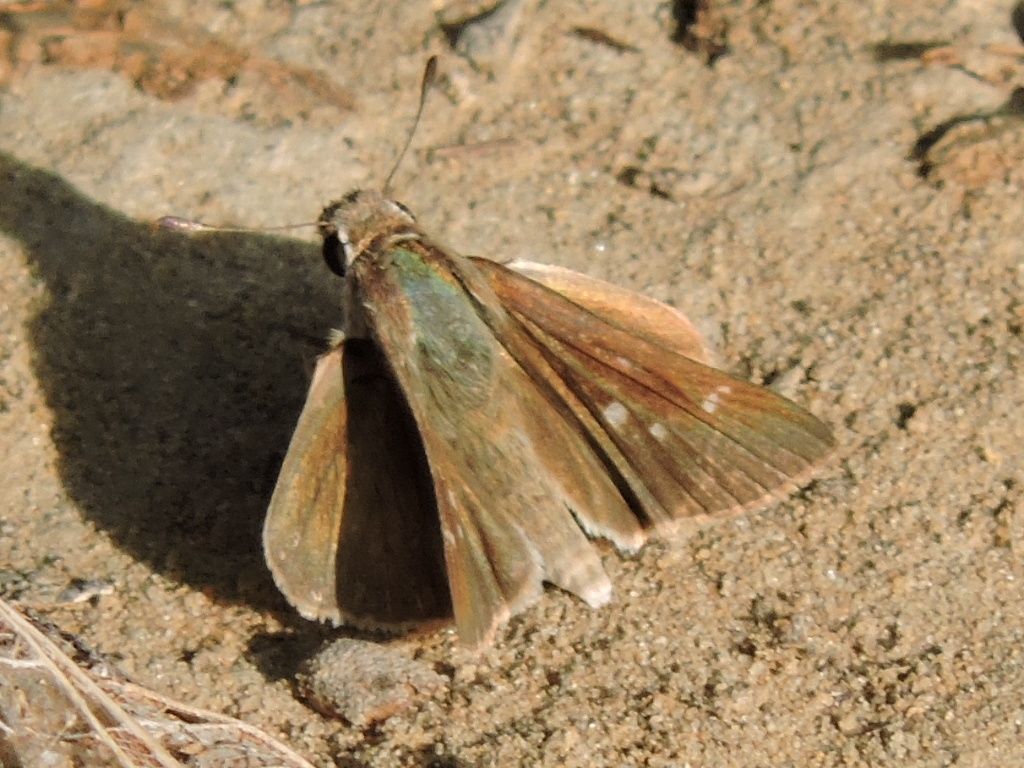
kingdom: Animalia
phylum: Arthropoda
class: Insecta
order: Lepidoptera
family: Hesperiidae
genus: Lerodea
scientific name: Lerodea eufala
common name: Eufala skipper
